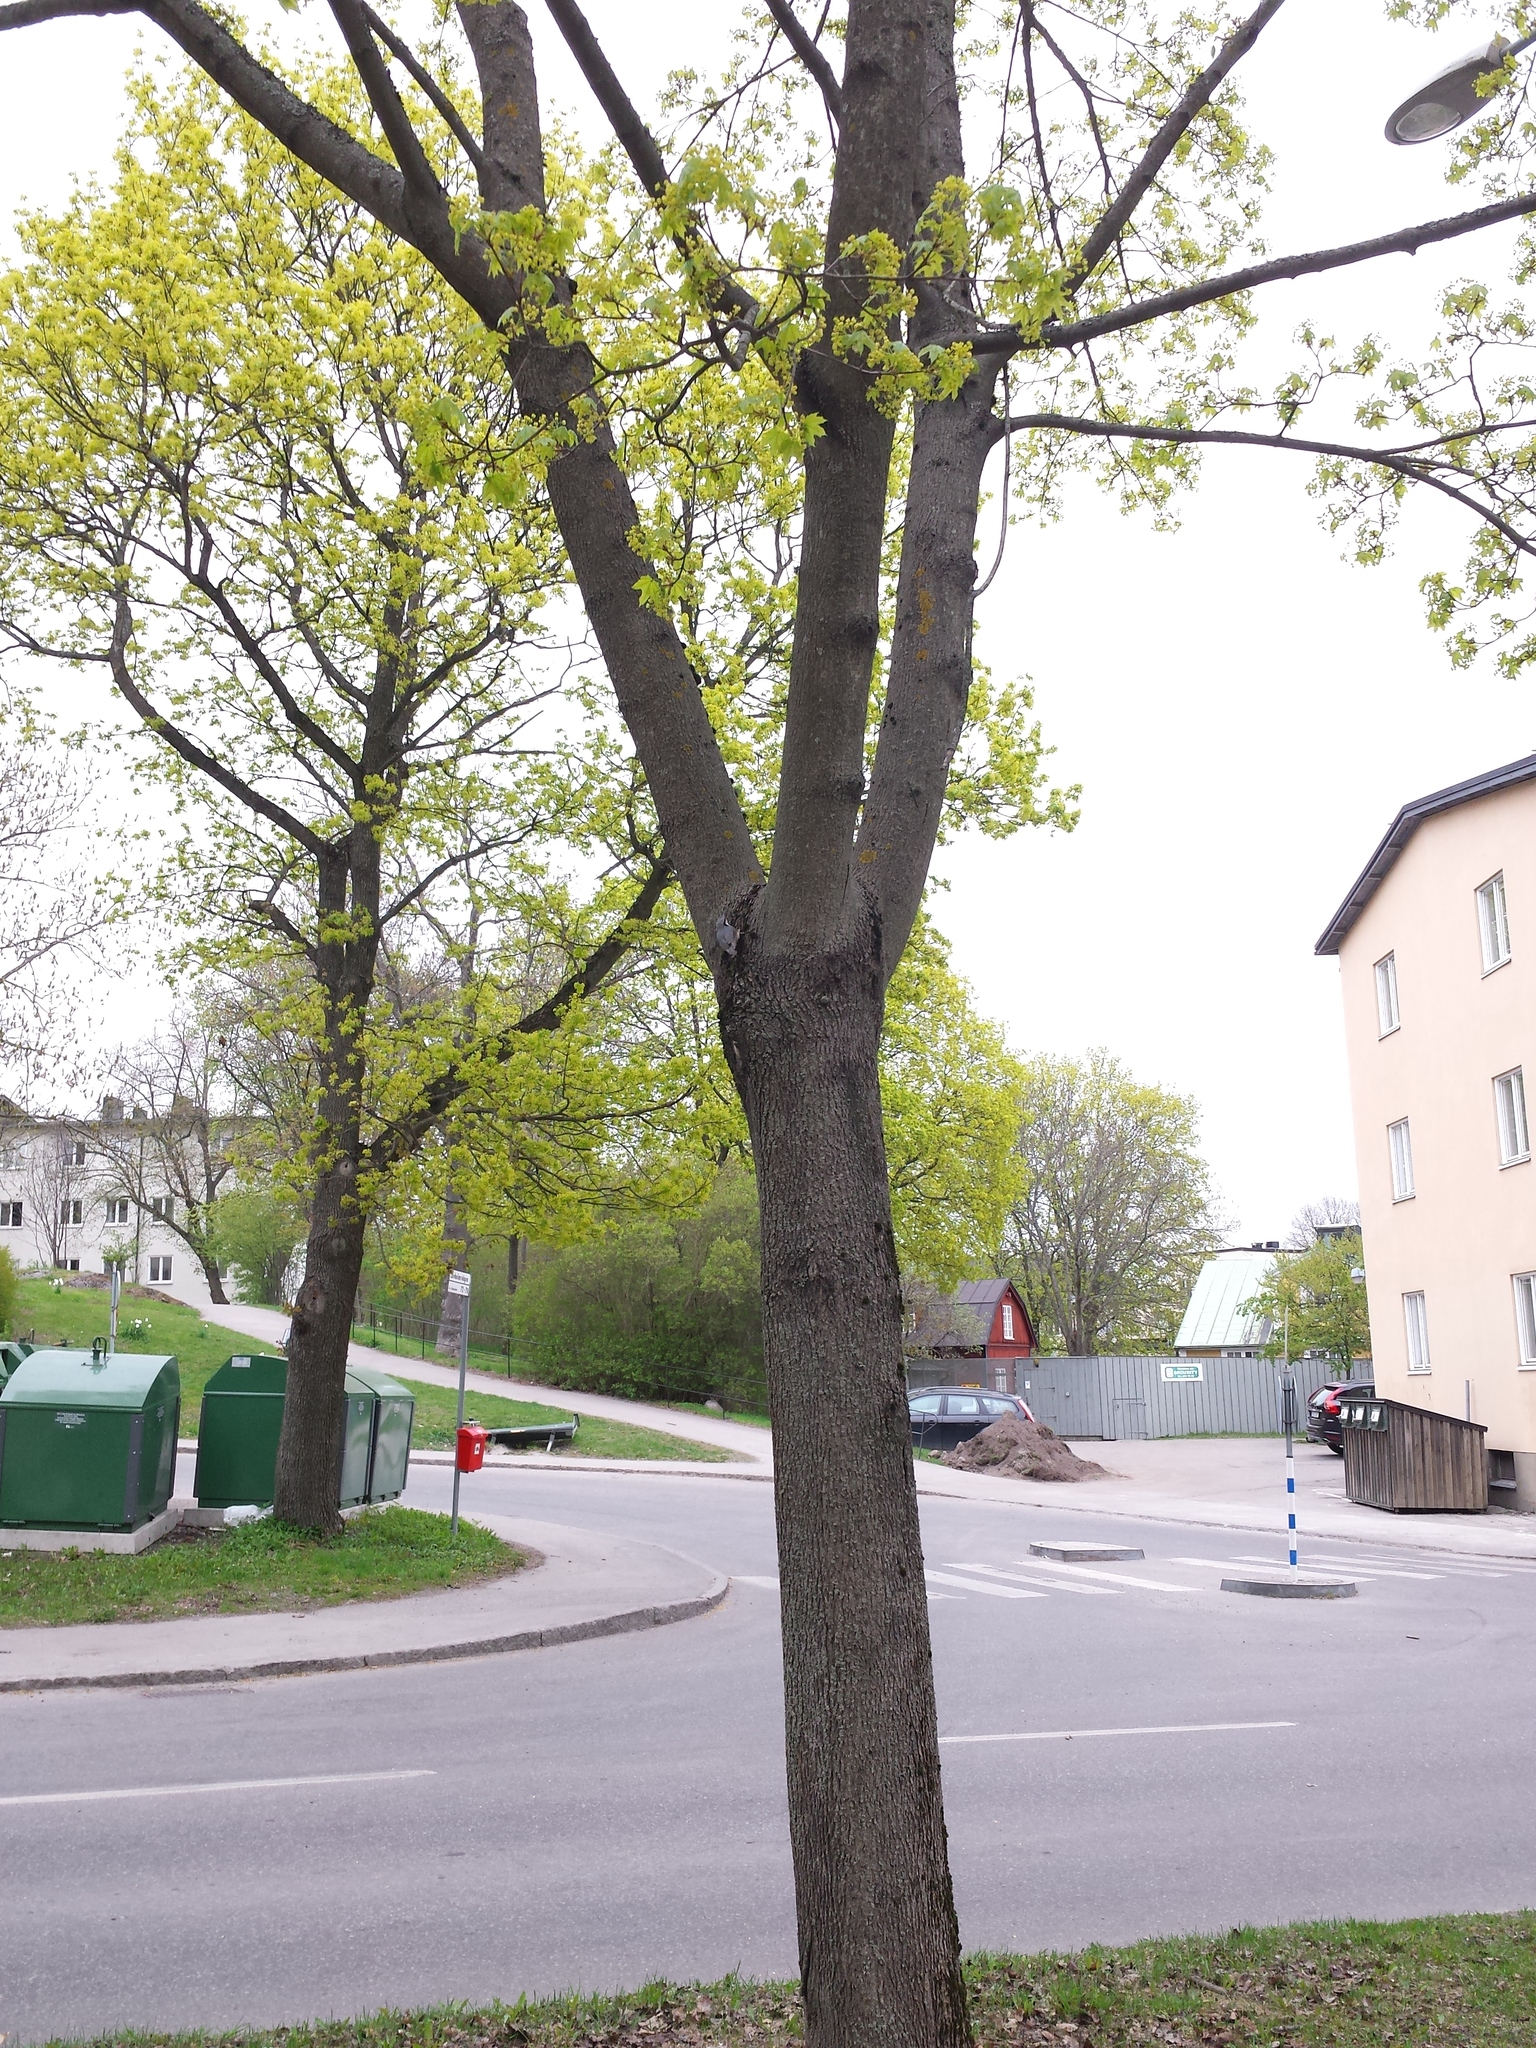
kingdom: Animalia
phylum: Chordata
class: Aves
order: Passeriformes
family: Sittidae
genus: Sitta
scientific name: Sitta europaea
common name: Eurasian nuthatch
